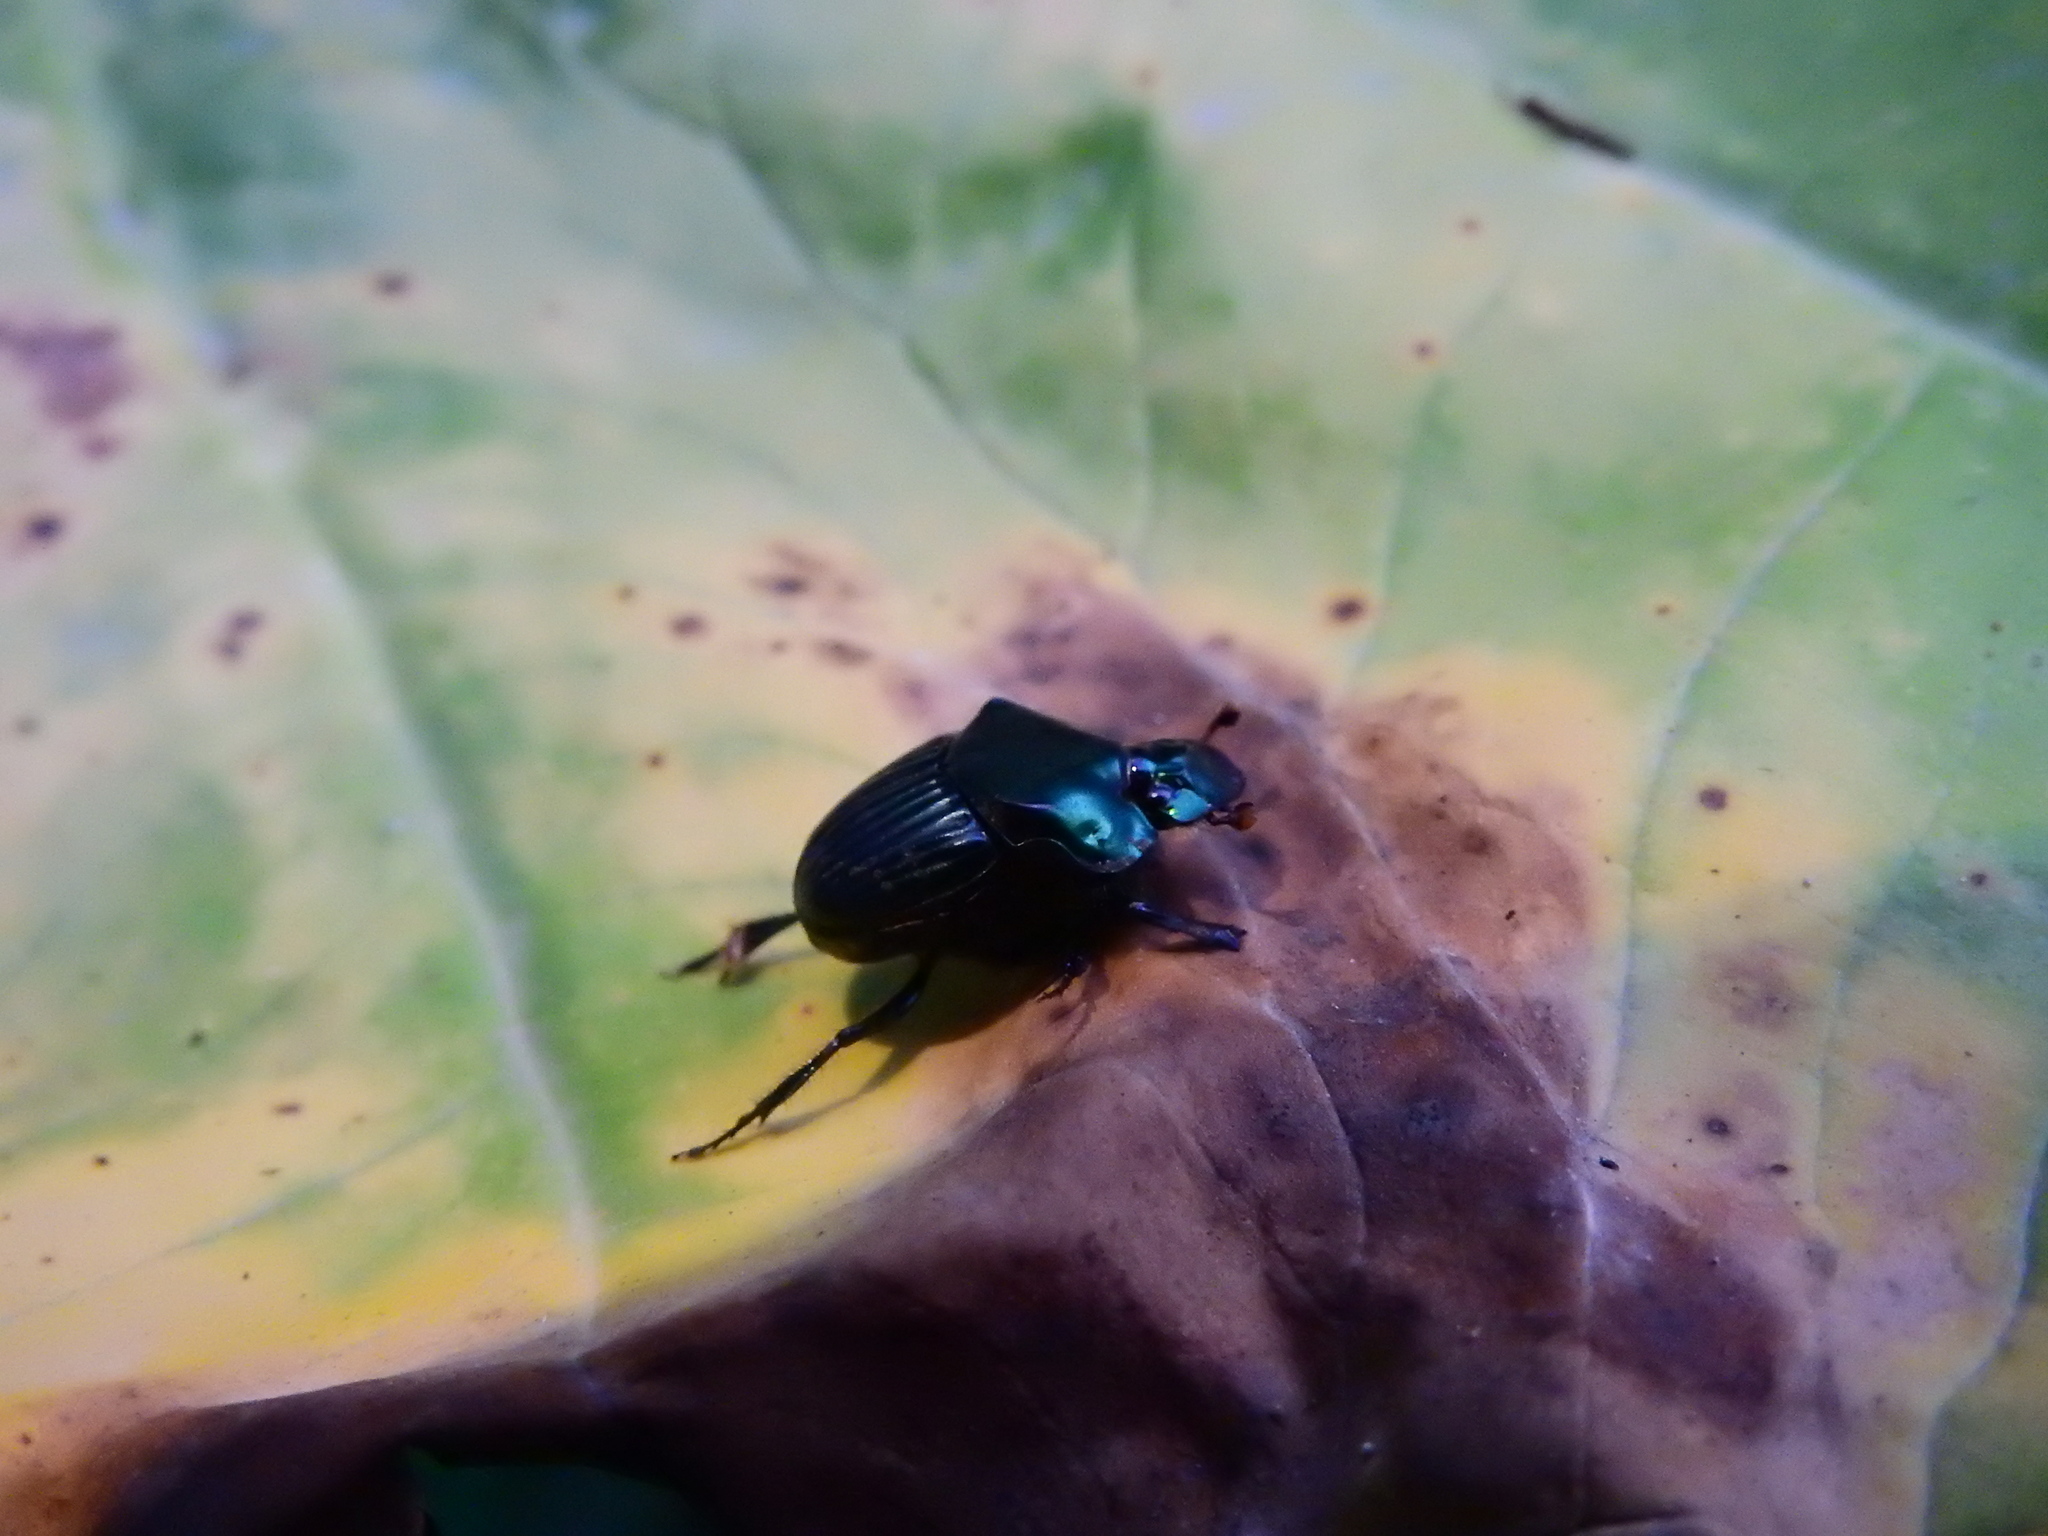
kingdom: Animalia
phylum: Arthropoda
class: Insecta
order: Coleoptera
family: Scarabaeidae
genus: Phanaeus
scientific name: Phanaeus endymion
